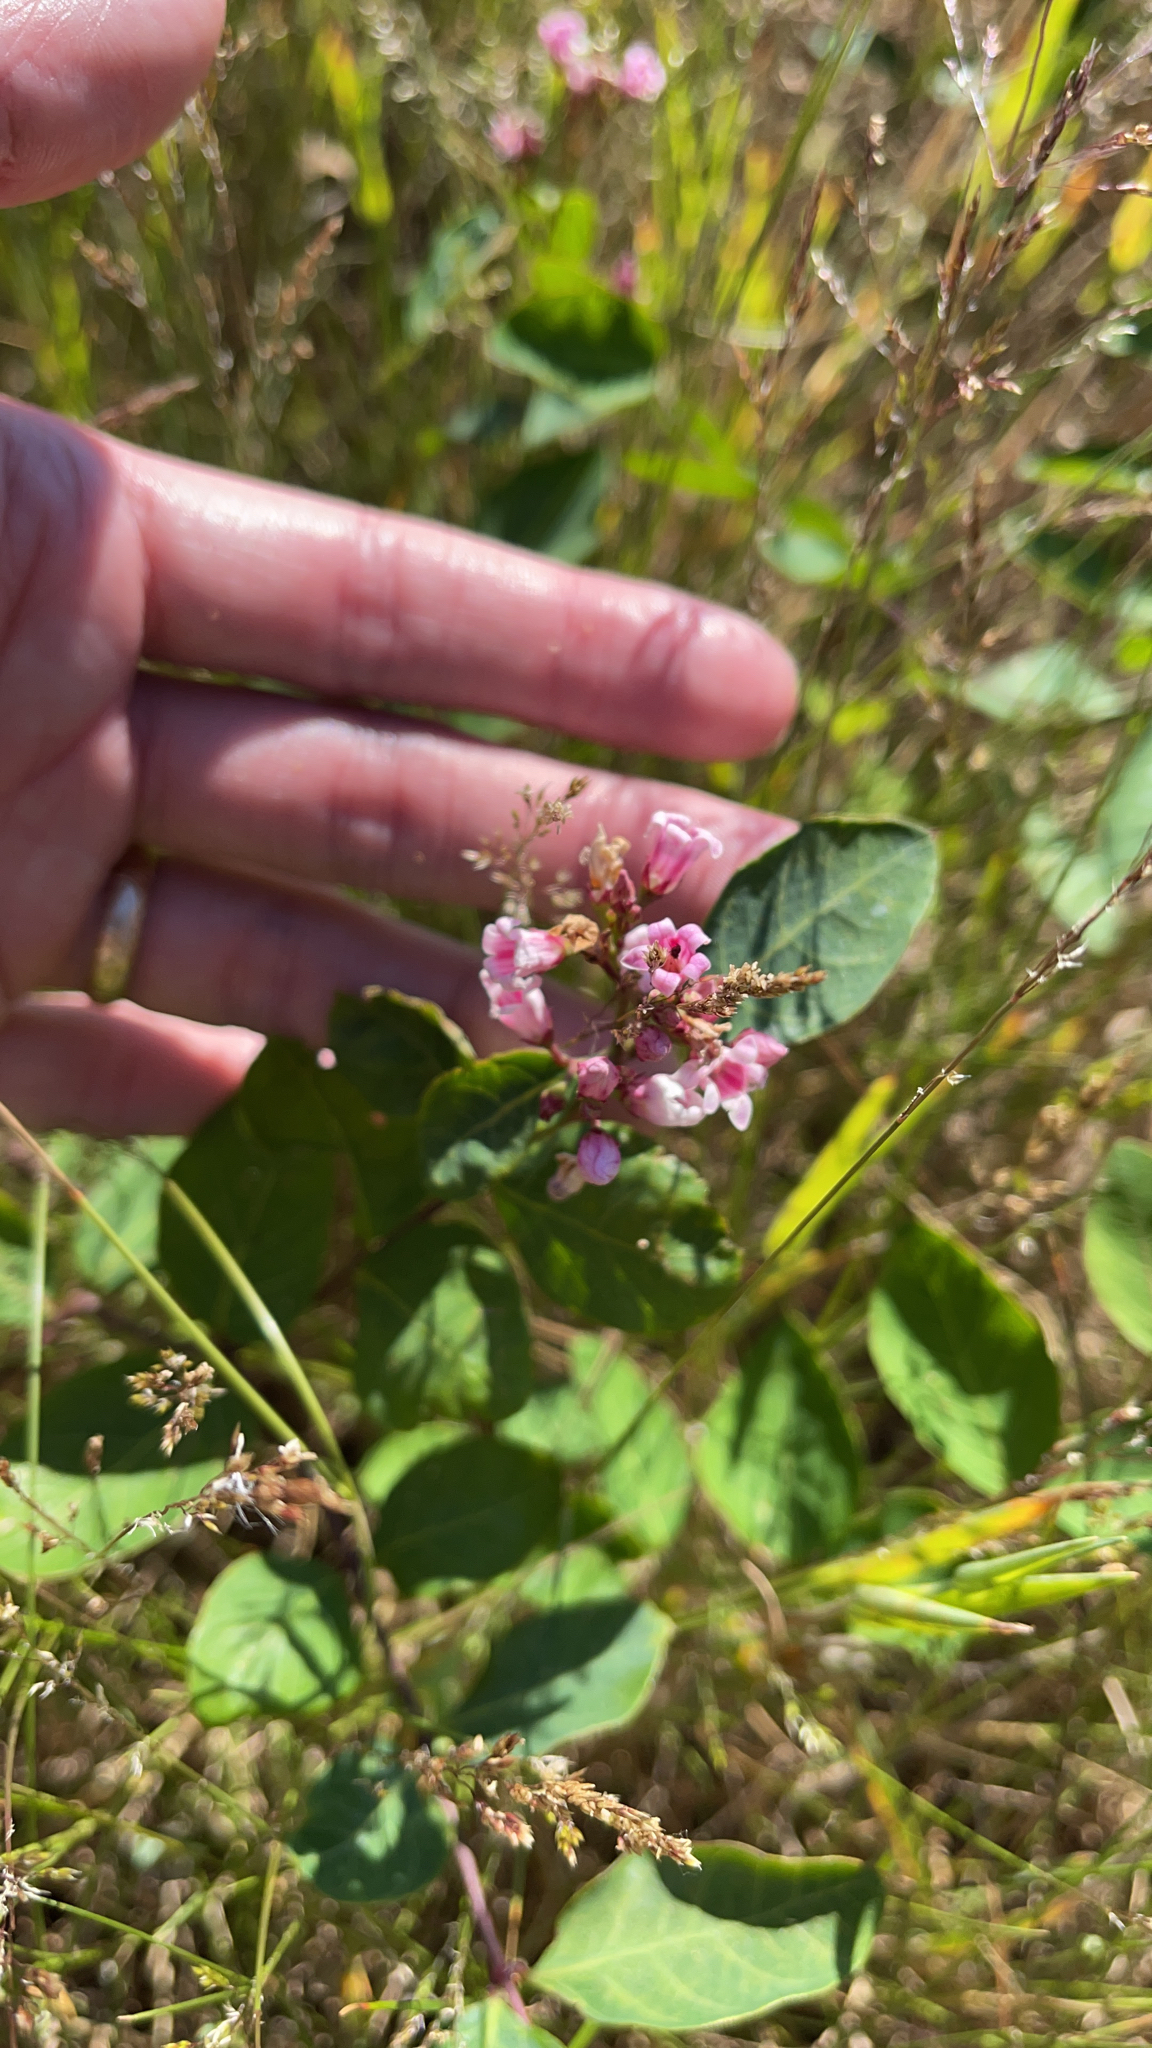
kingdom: Plantae
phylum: Tracheophyta
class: Magnoliopsida
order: Gentianales
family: Apocynaceae
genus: Apocynum
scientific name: Apocynum androsaemifolium
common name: Spreading dogbane
